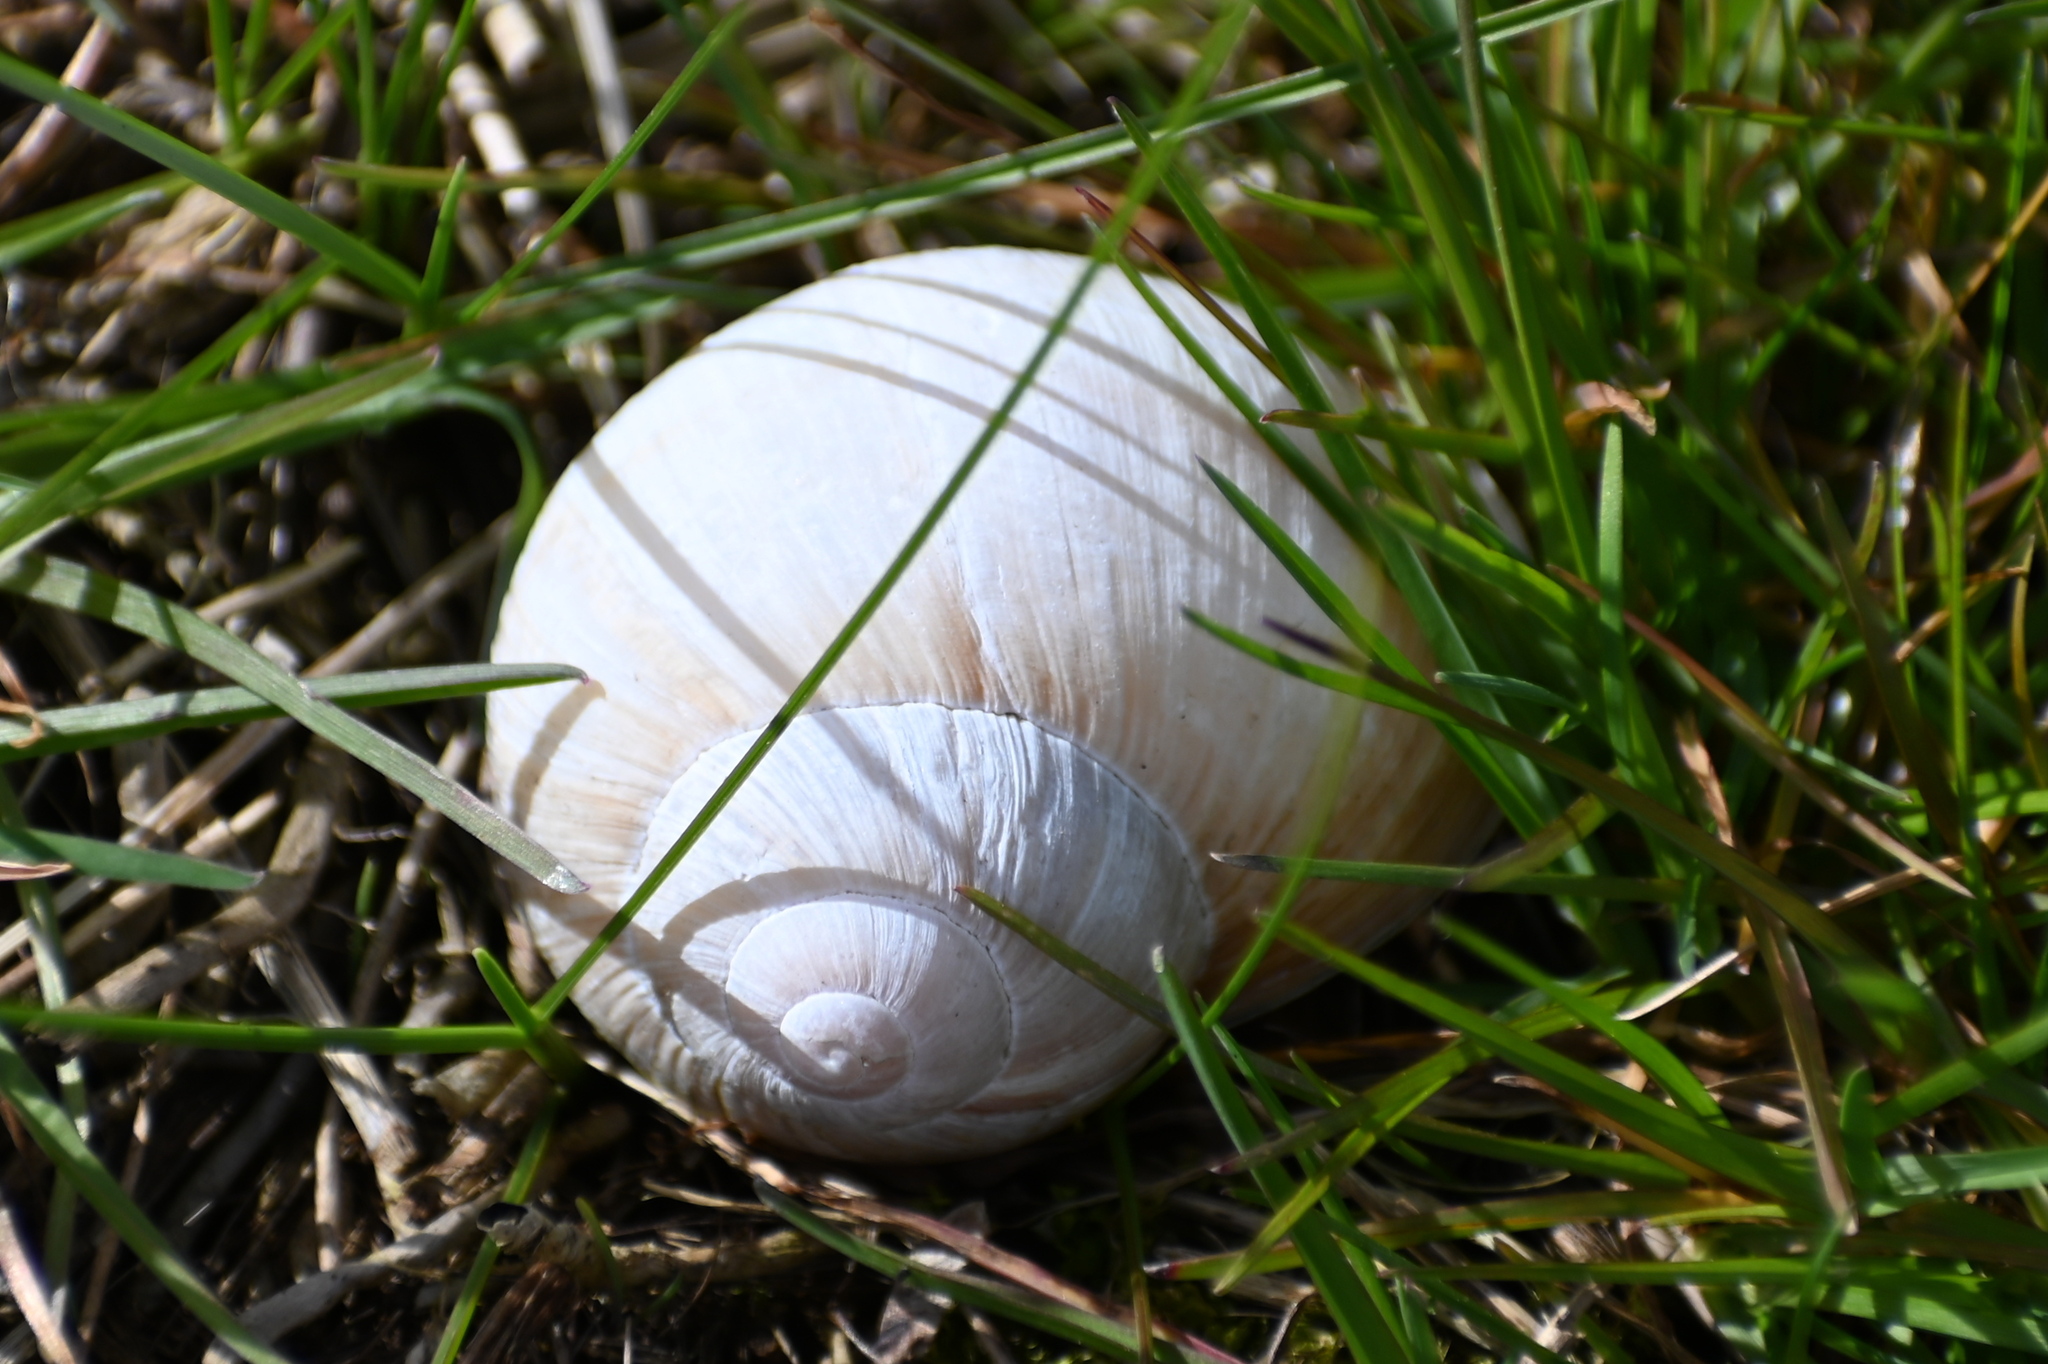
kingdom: Animalia
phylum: Mollusca
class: Gastropoda
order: Stylommatophora
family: Helicidae
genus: Helix
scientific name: Helix pomatia
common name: Roman snail
